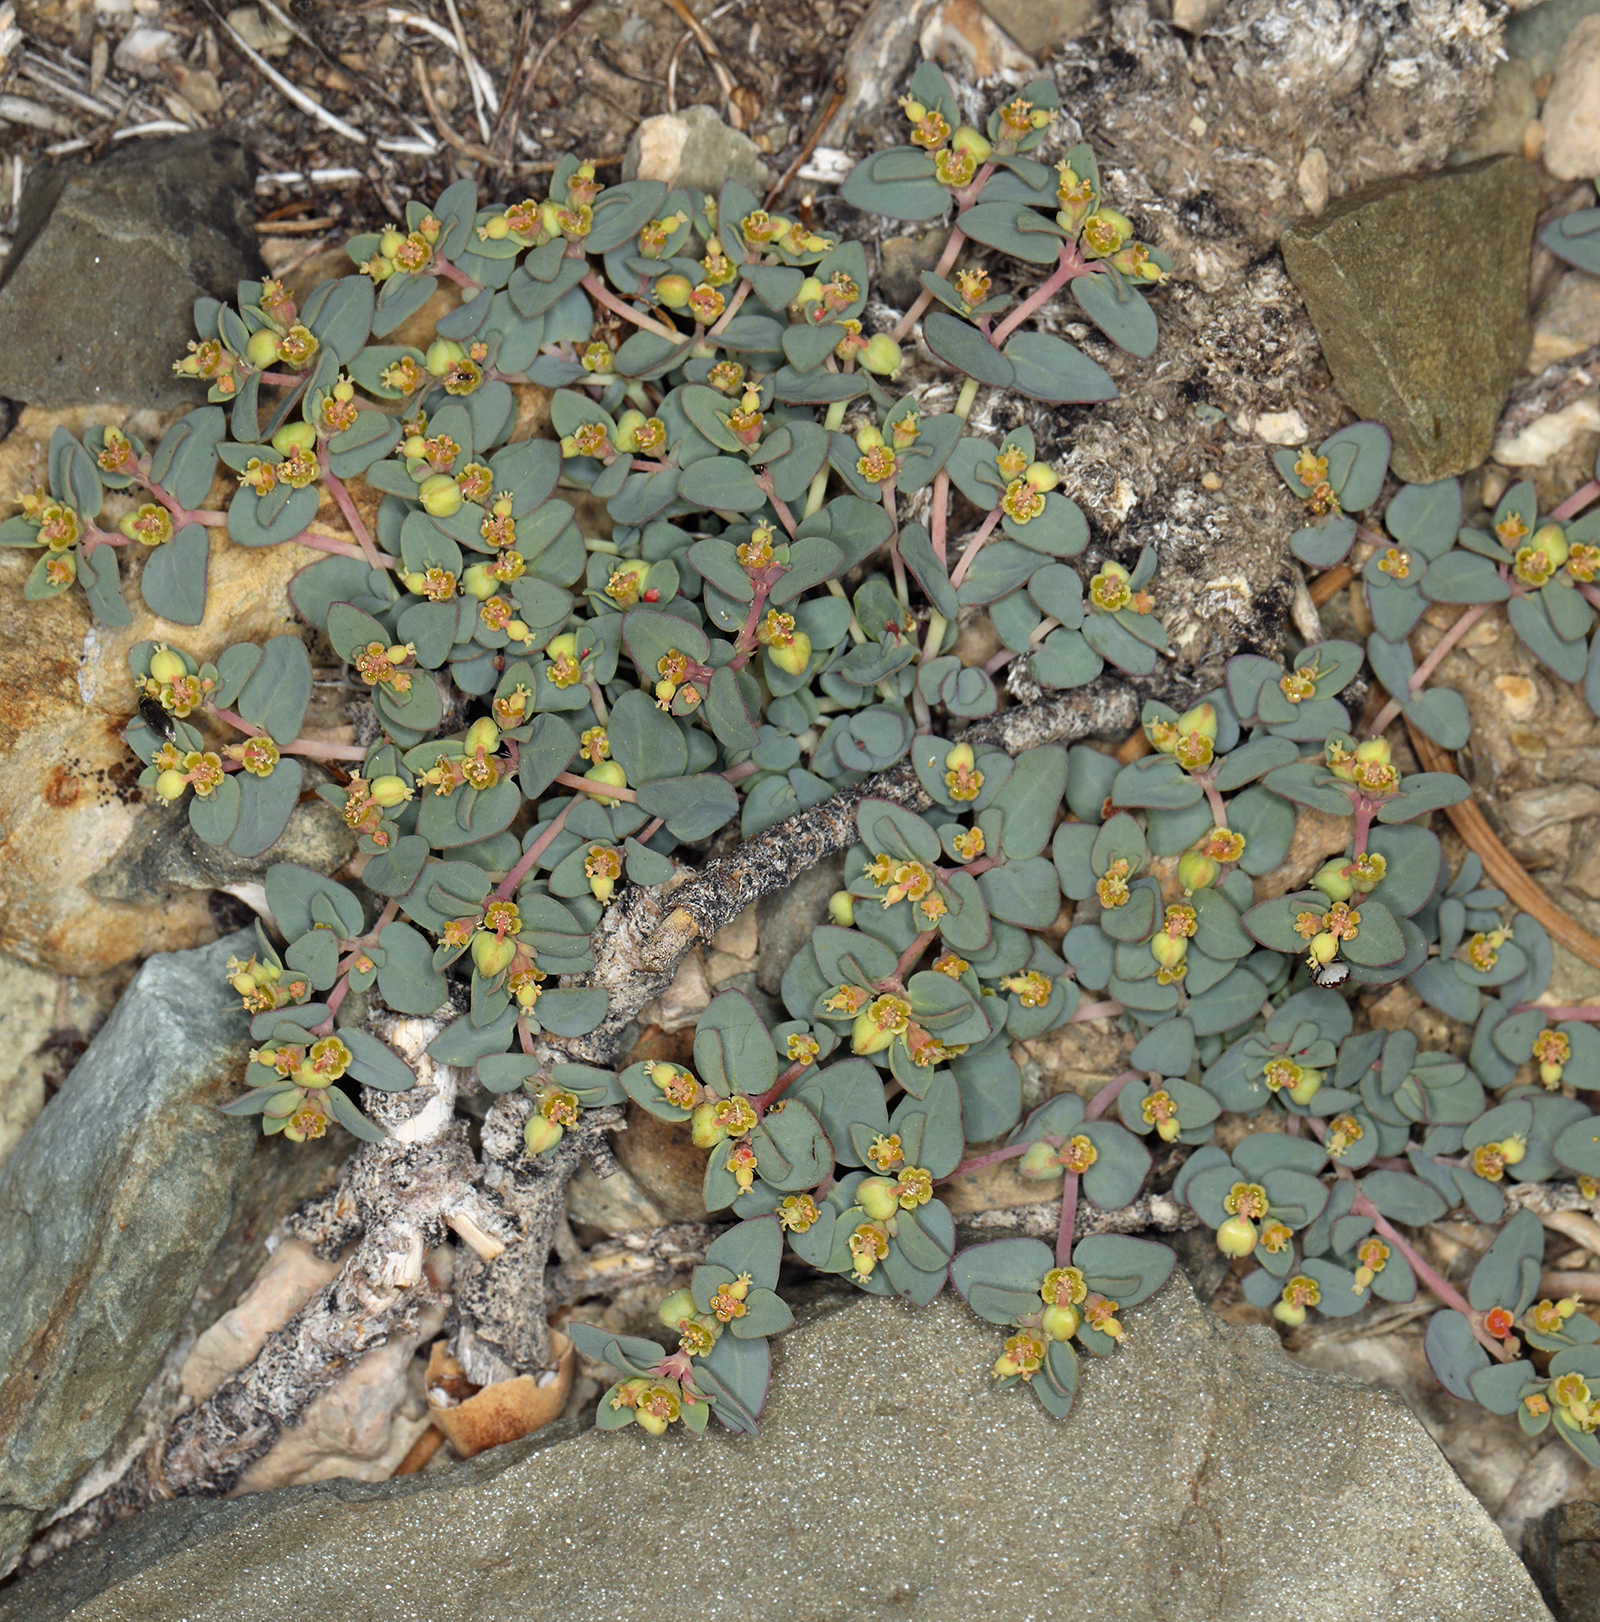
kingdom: Plantae
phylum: Tracheophyta
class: Magnoliopsida
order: Malpighiales
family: Euphorbiaceae
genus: Euphorbia
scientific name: Euphorbia fendleri
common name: Fendler's euphorbia
